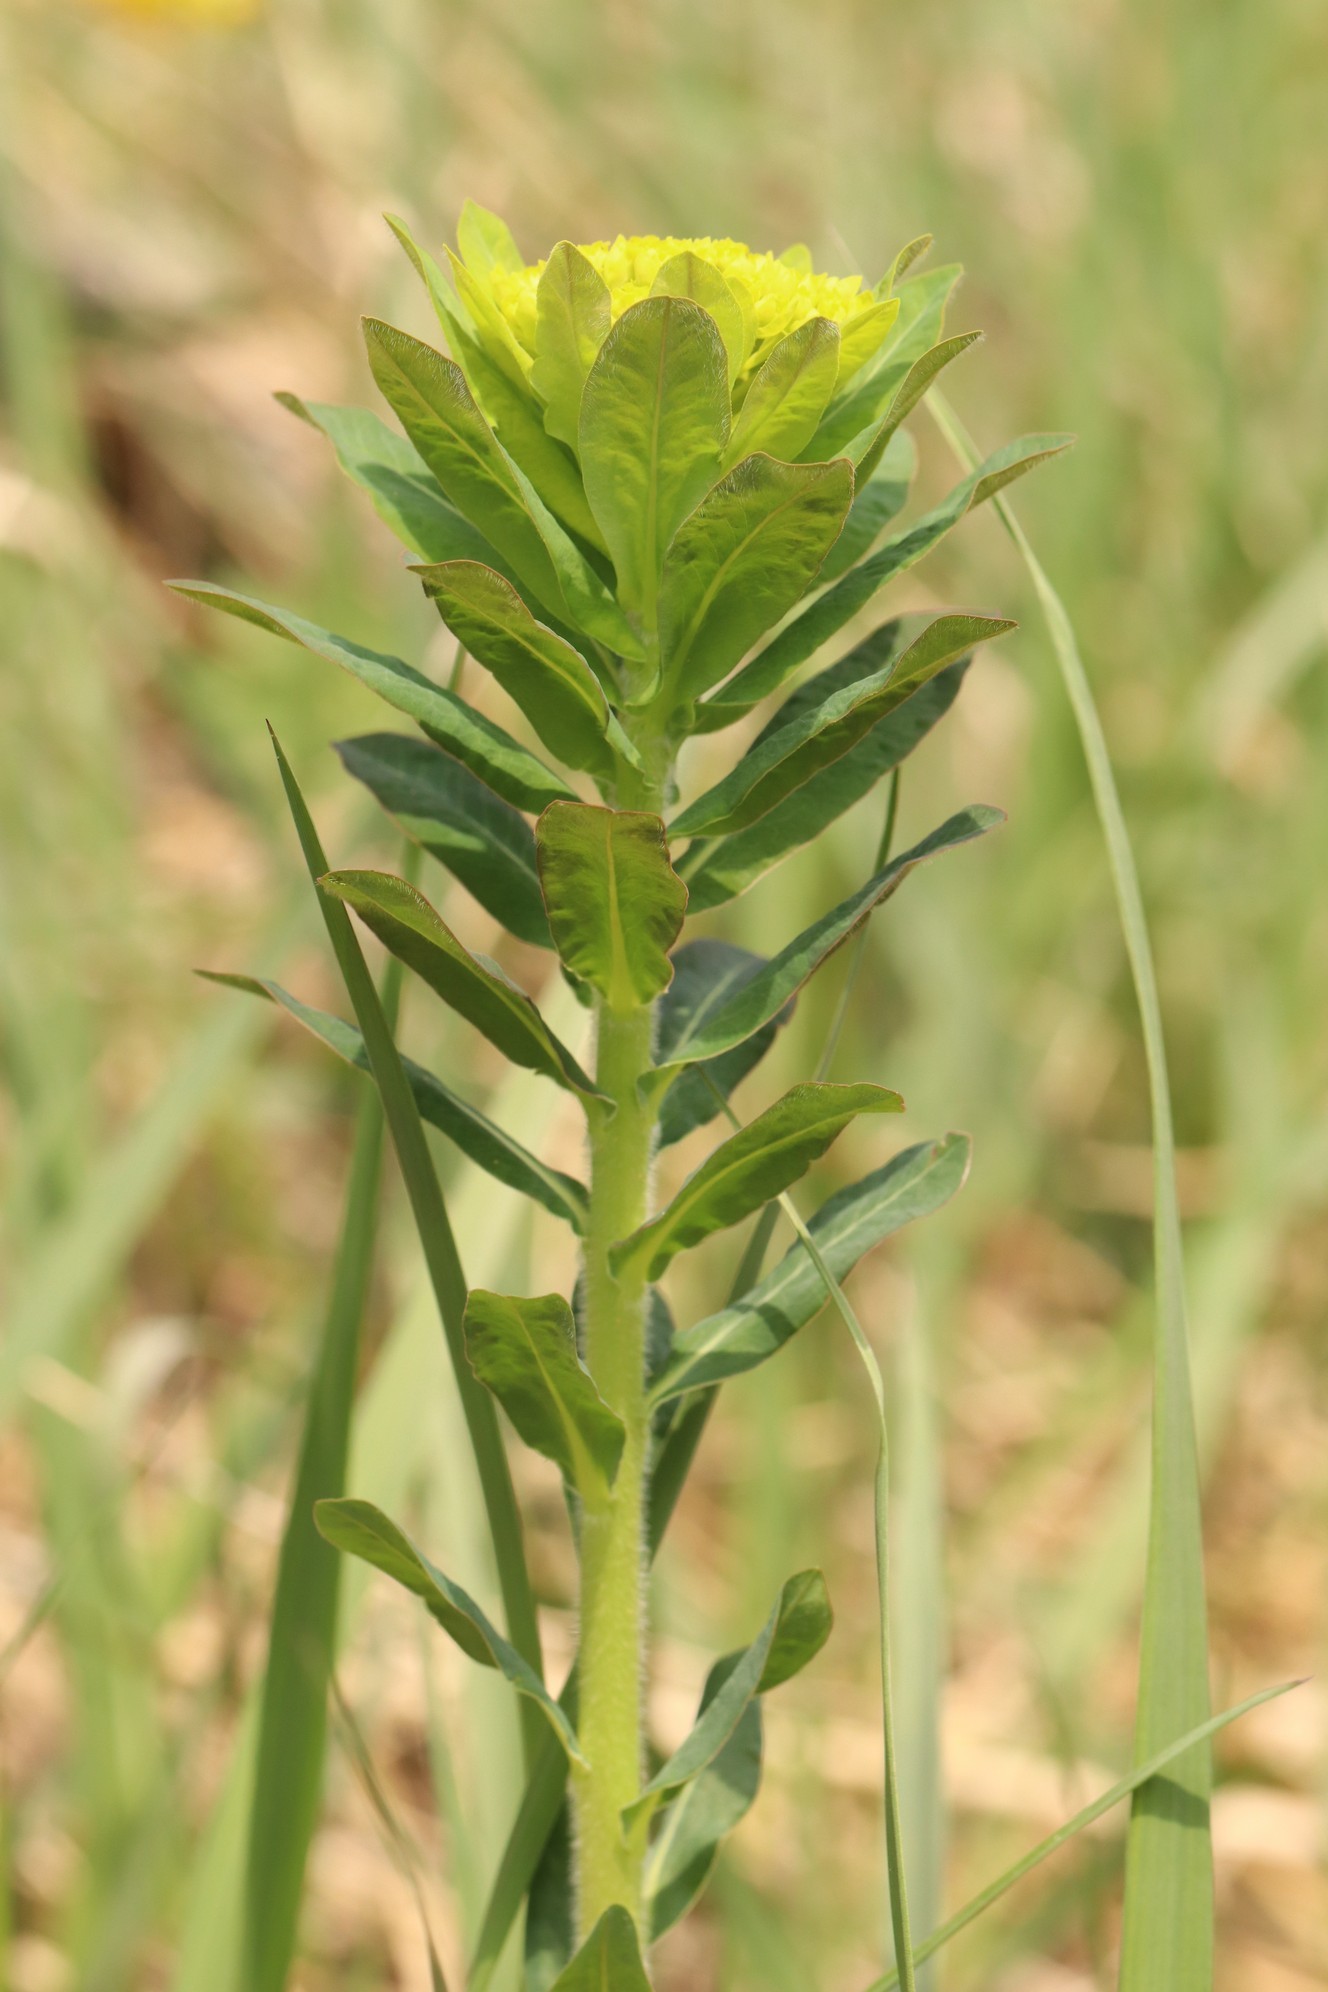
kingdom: Plantae
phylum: Tracheophyta
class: Magnoliopsida
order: Malpighiales
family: Euphorbiaceae
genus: Euphorbia
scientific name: Euphorbia pilosa
